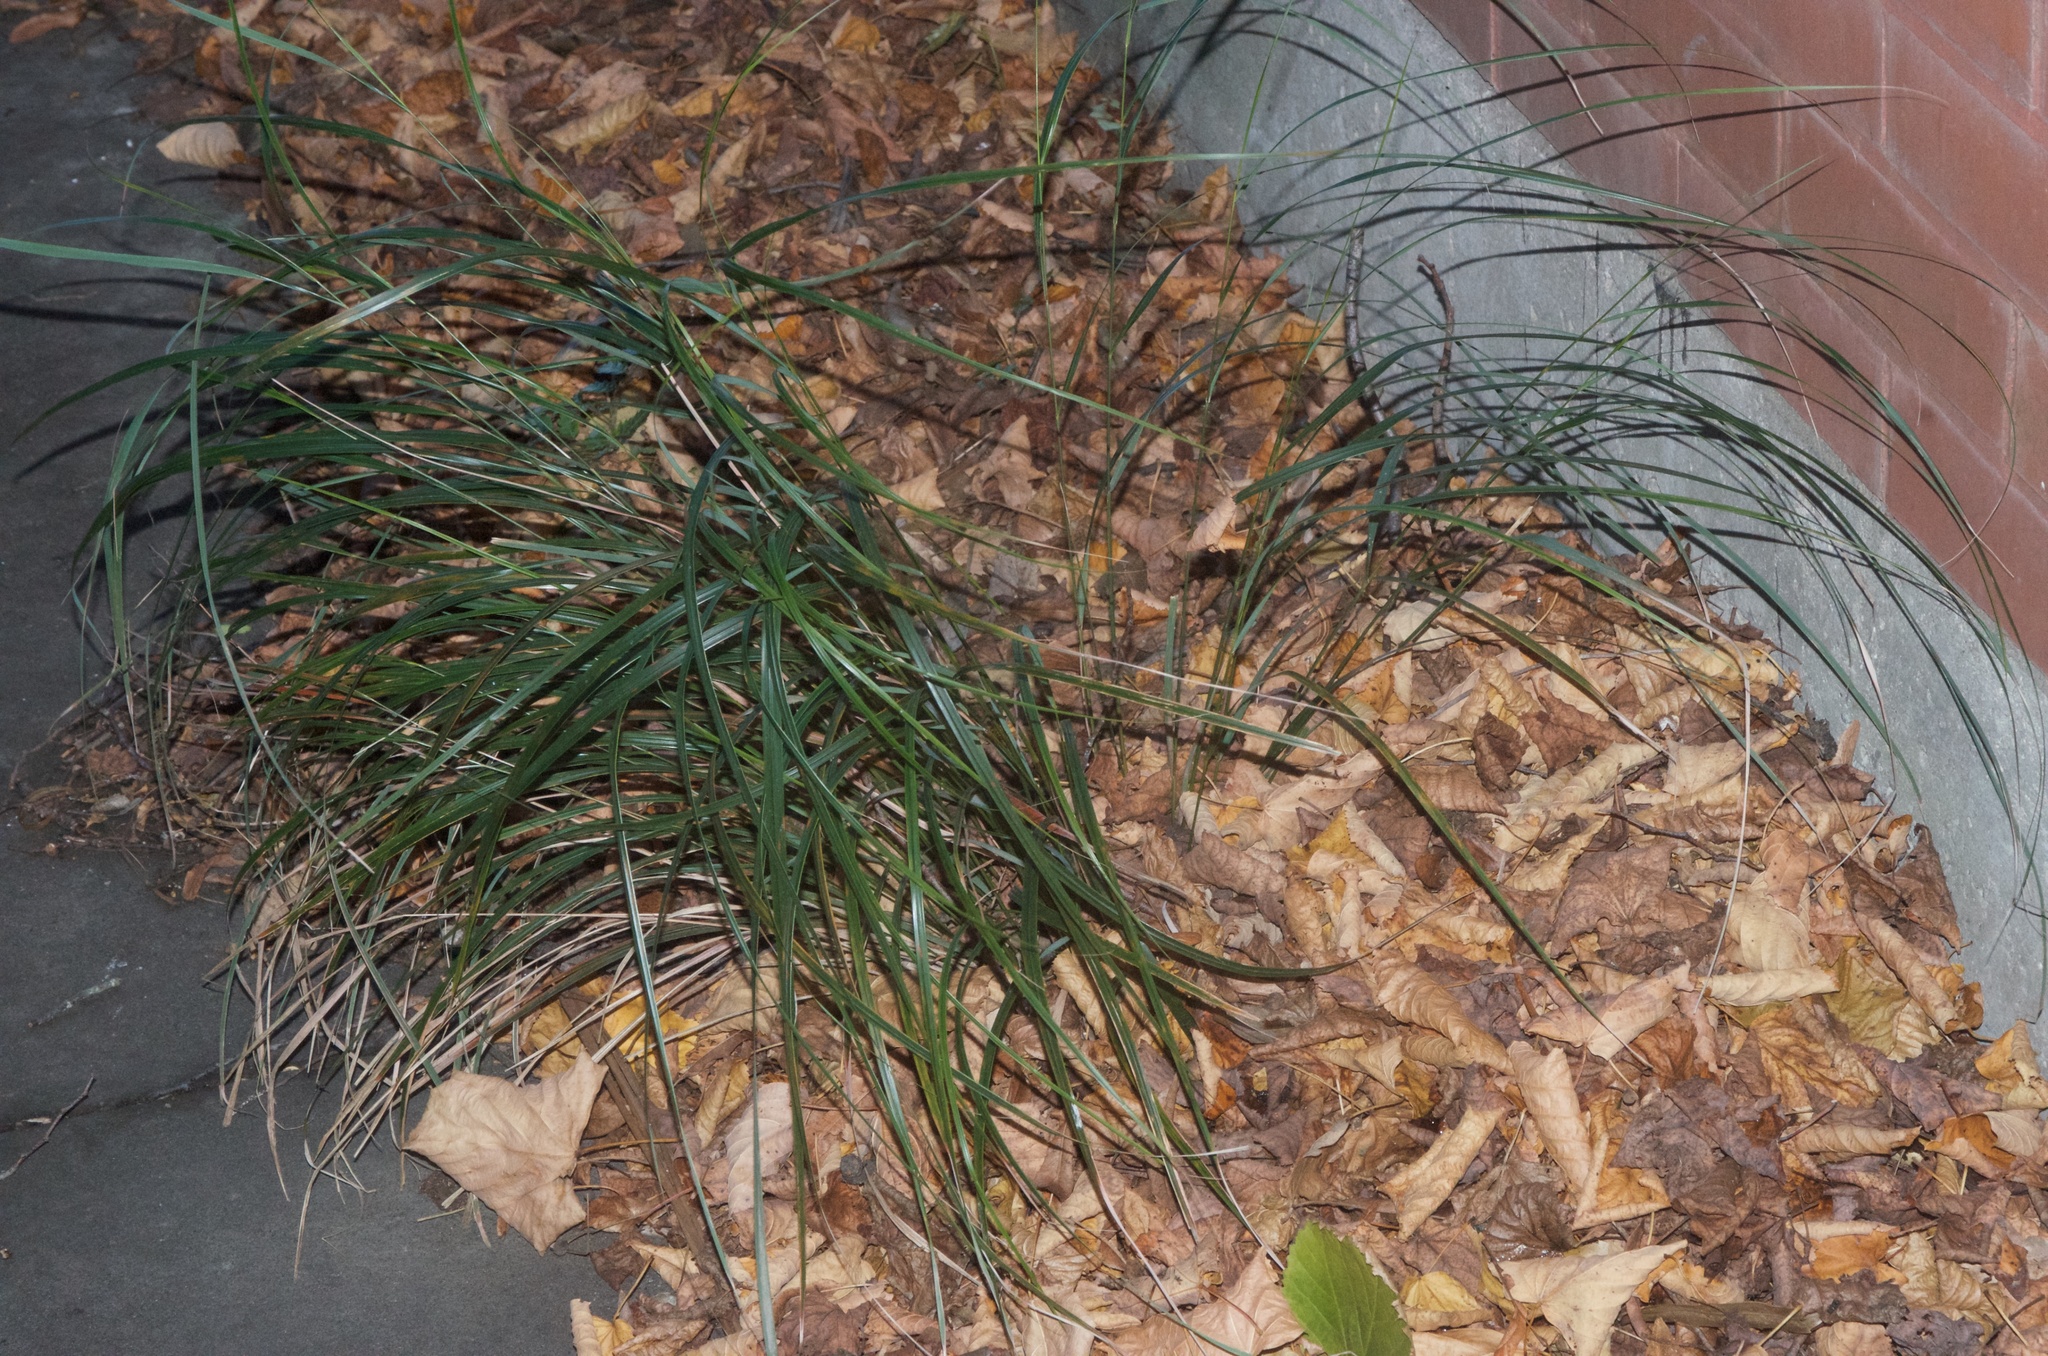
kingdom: Plantae
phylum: Tracheophyta
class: Liliopsida
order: Poales
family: Poaceae
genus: Anemanthele
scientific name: Anemanthele lessoniana
